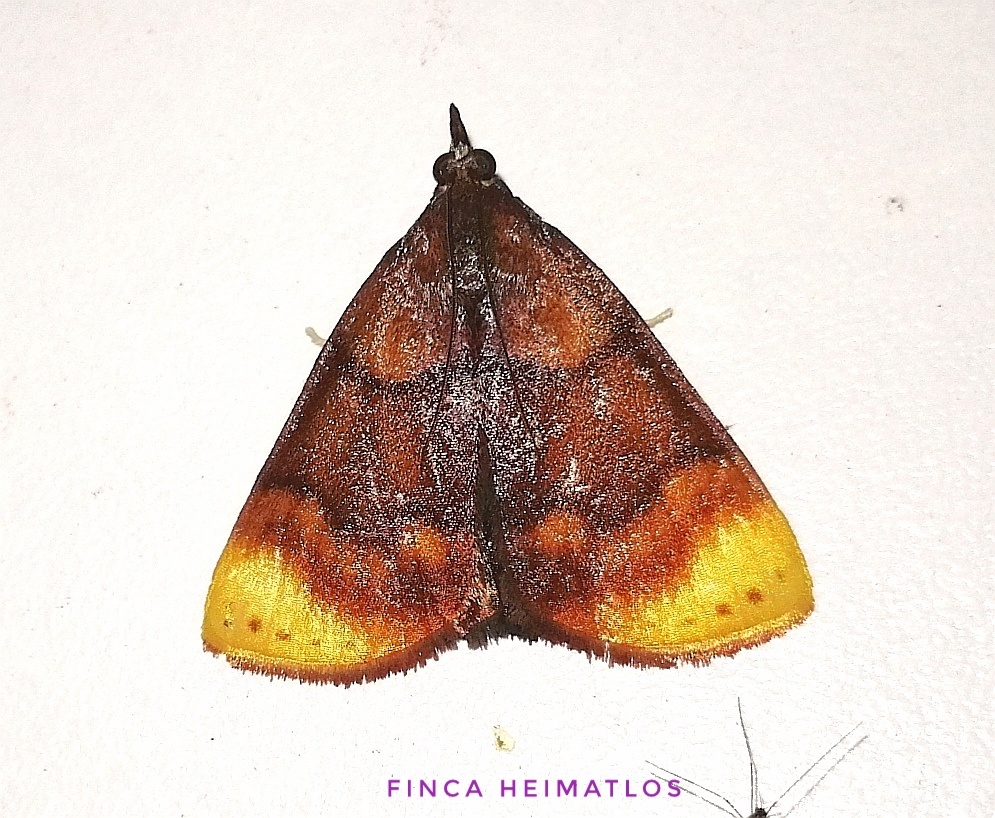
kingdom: Animalia
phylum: Arthropoda
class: Insecta
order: Lepidoptera
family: Pyralidae
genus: Paramacna
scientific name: Paramacna nattereri
